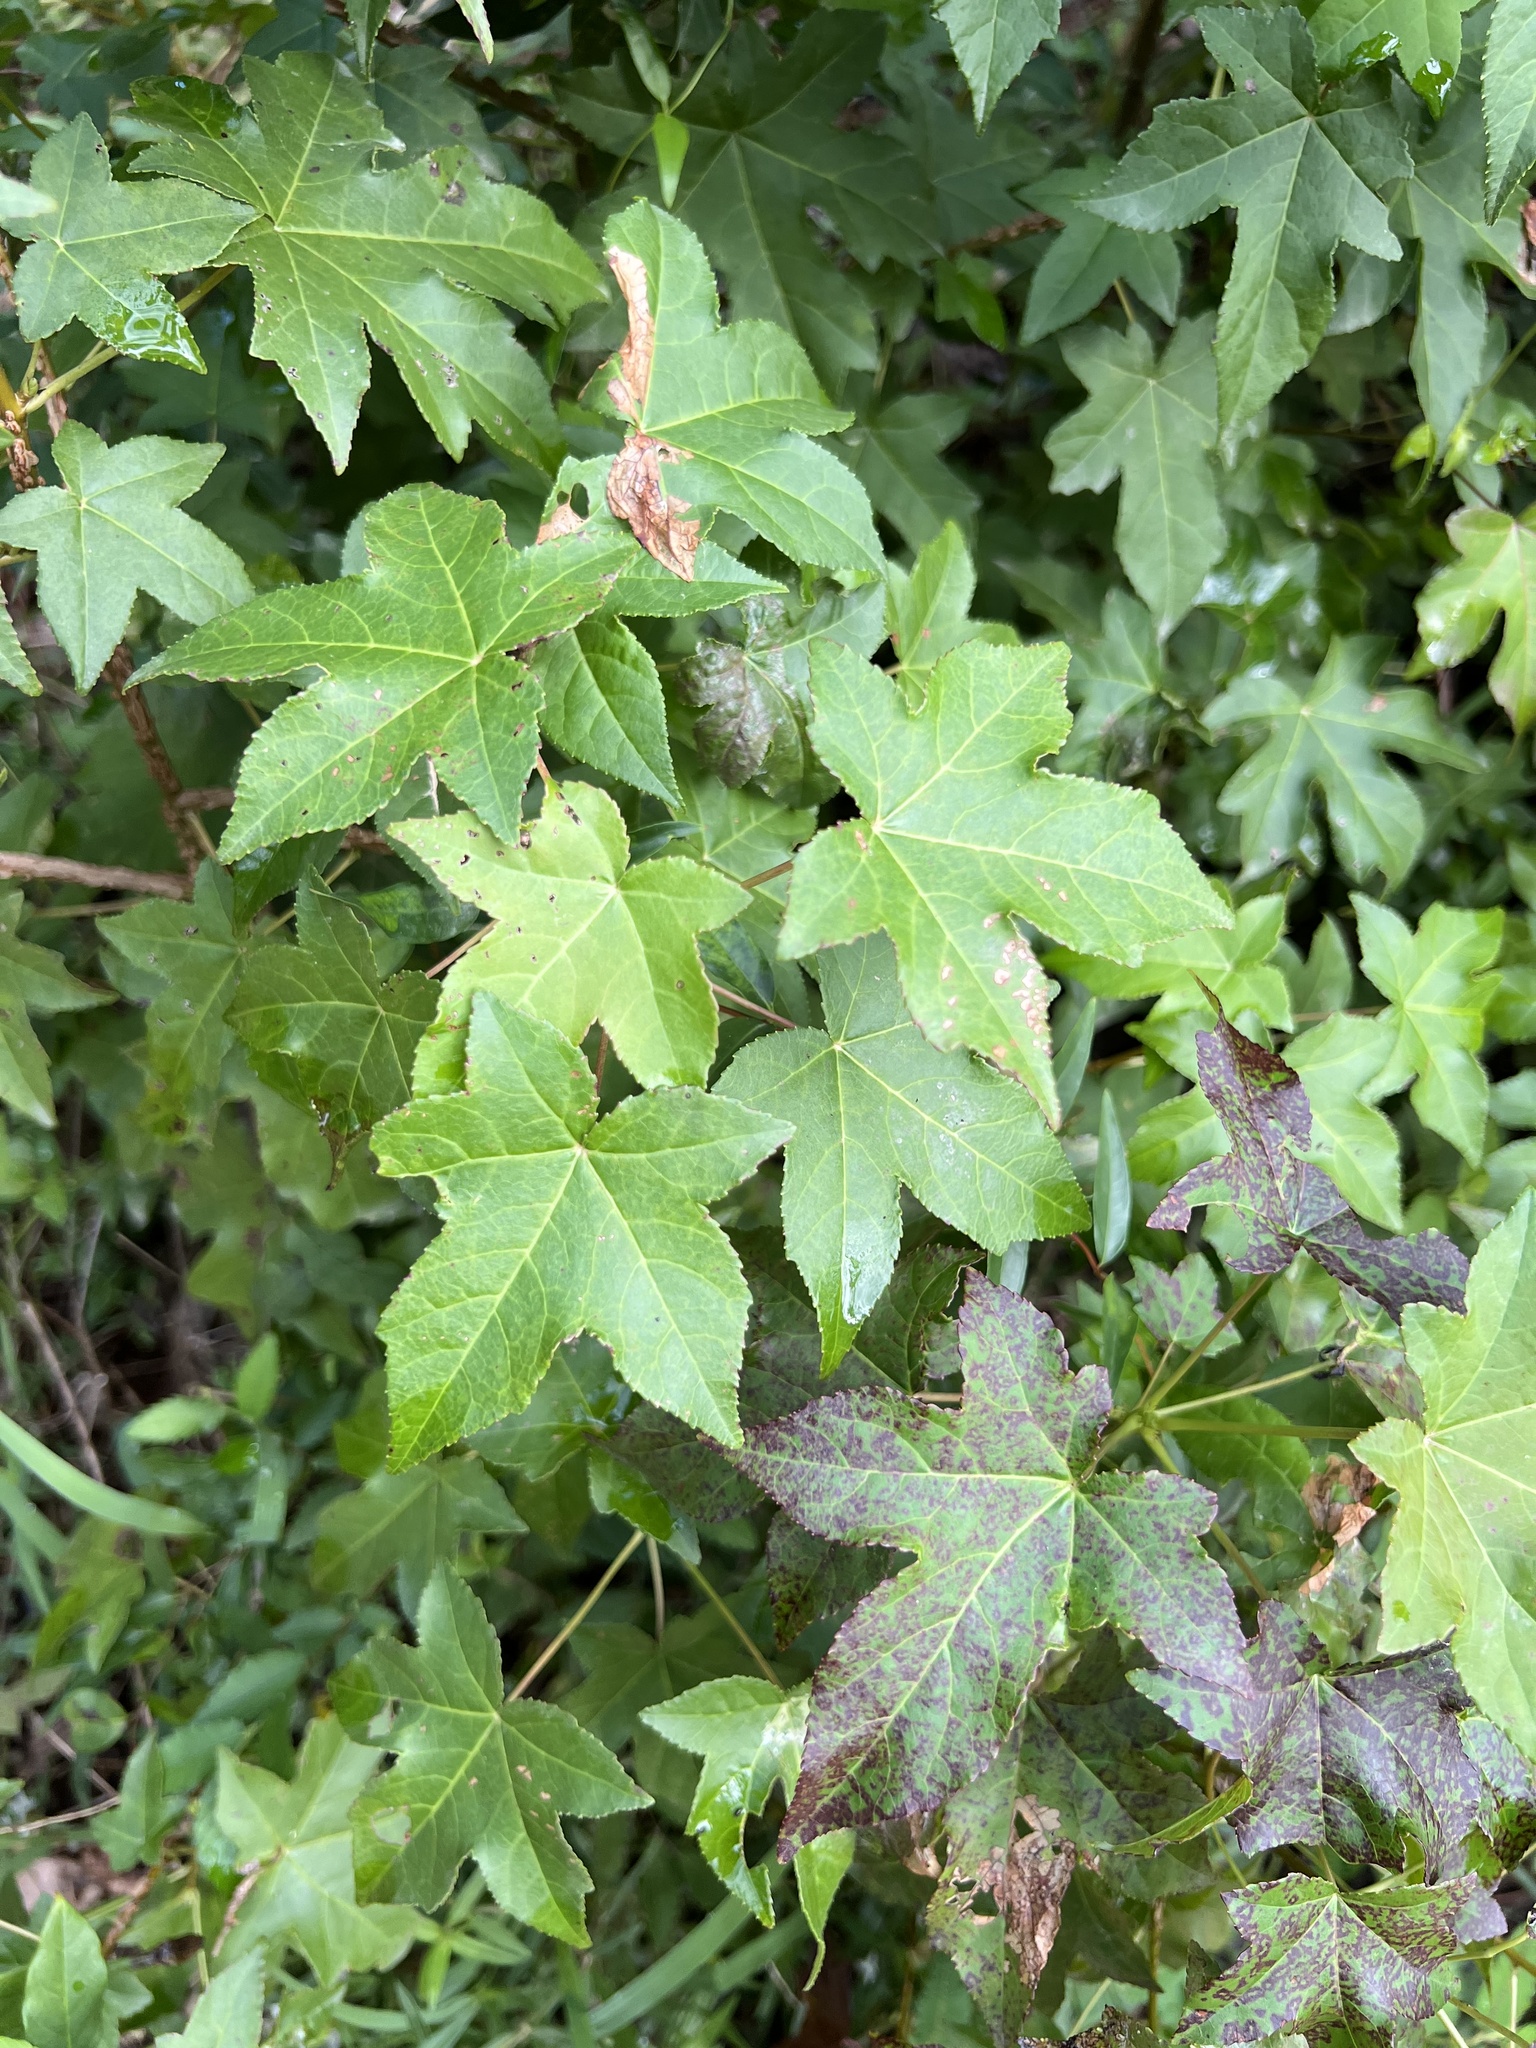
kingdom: Plantae
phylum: Tracheophyta
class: Magnoliopsida
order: Saxifragales
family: Altingiaceae
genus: Liquidambar
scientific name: Liquidambar styraciflua
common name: Sweet gum
